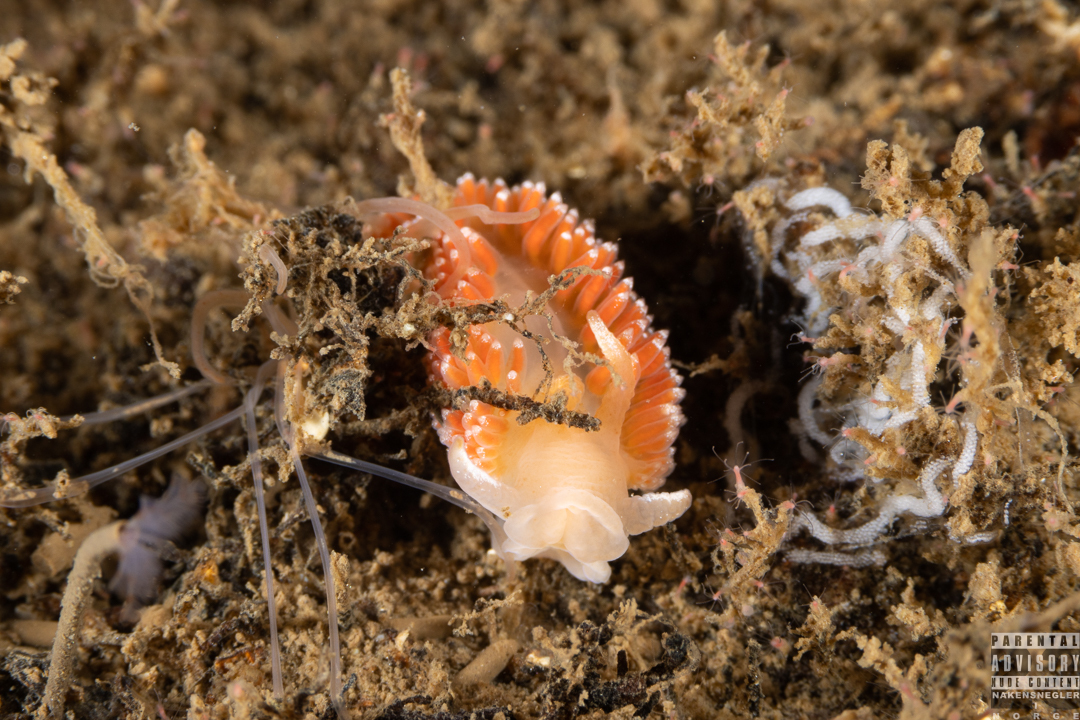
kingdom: Animalia
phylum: Mollusca
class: Gastropoda
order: Nudibranchia
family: Coryphellidae
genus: Coryphella
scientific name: Coryphella borealis
